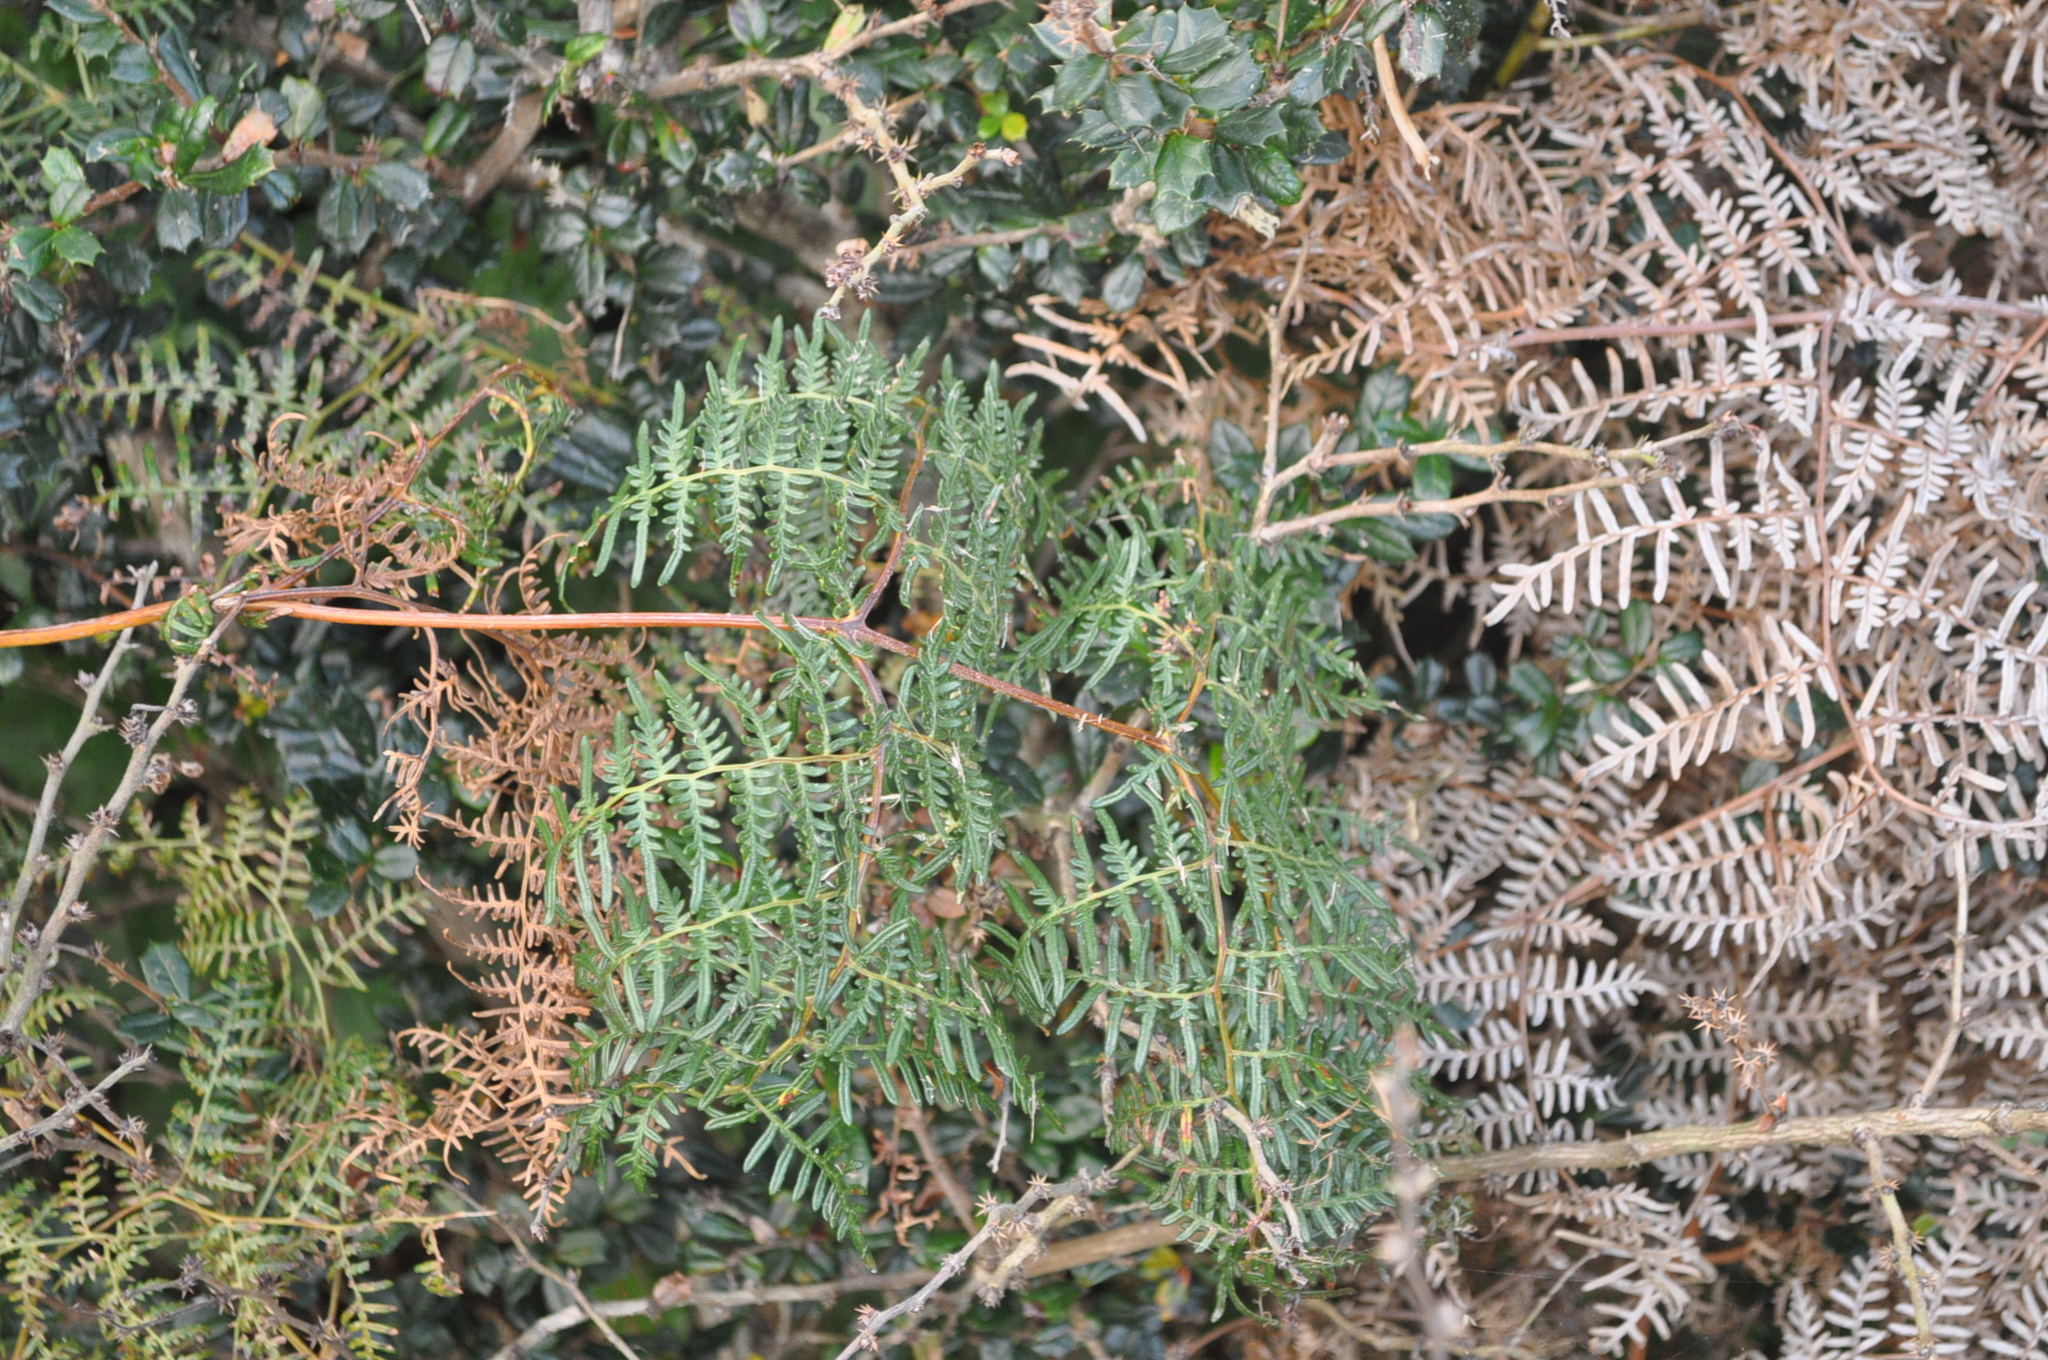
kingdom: Plantae
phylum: Tracheophyta
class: Polypodiopsida
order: Polypodiales
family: Dennstaedtiaceae
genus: Pteridium
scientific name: Pteridium esculentum
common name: Bracken fern
